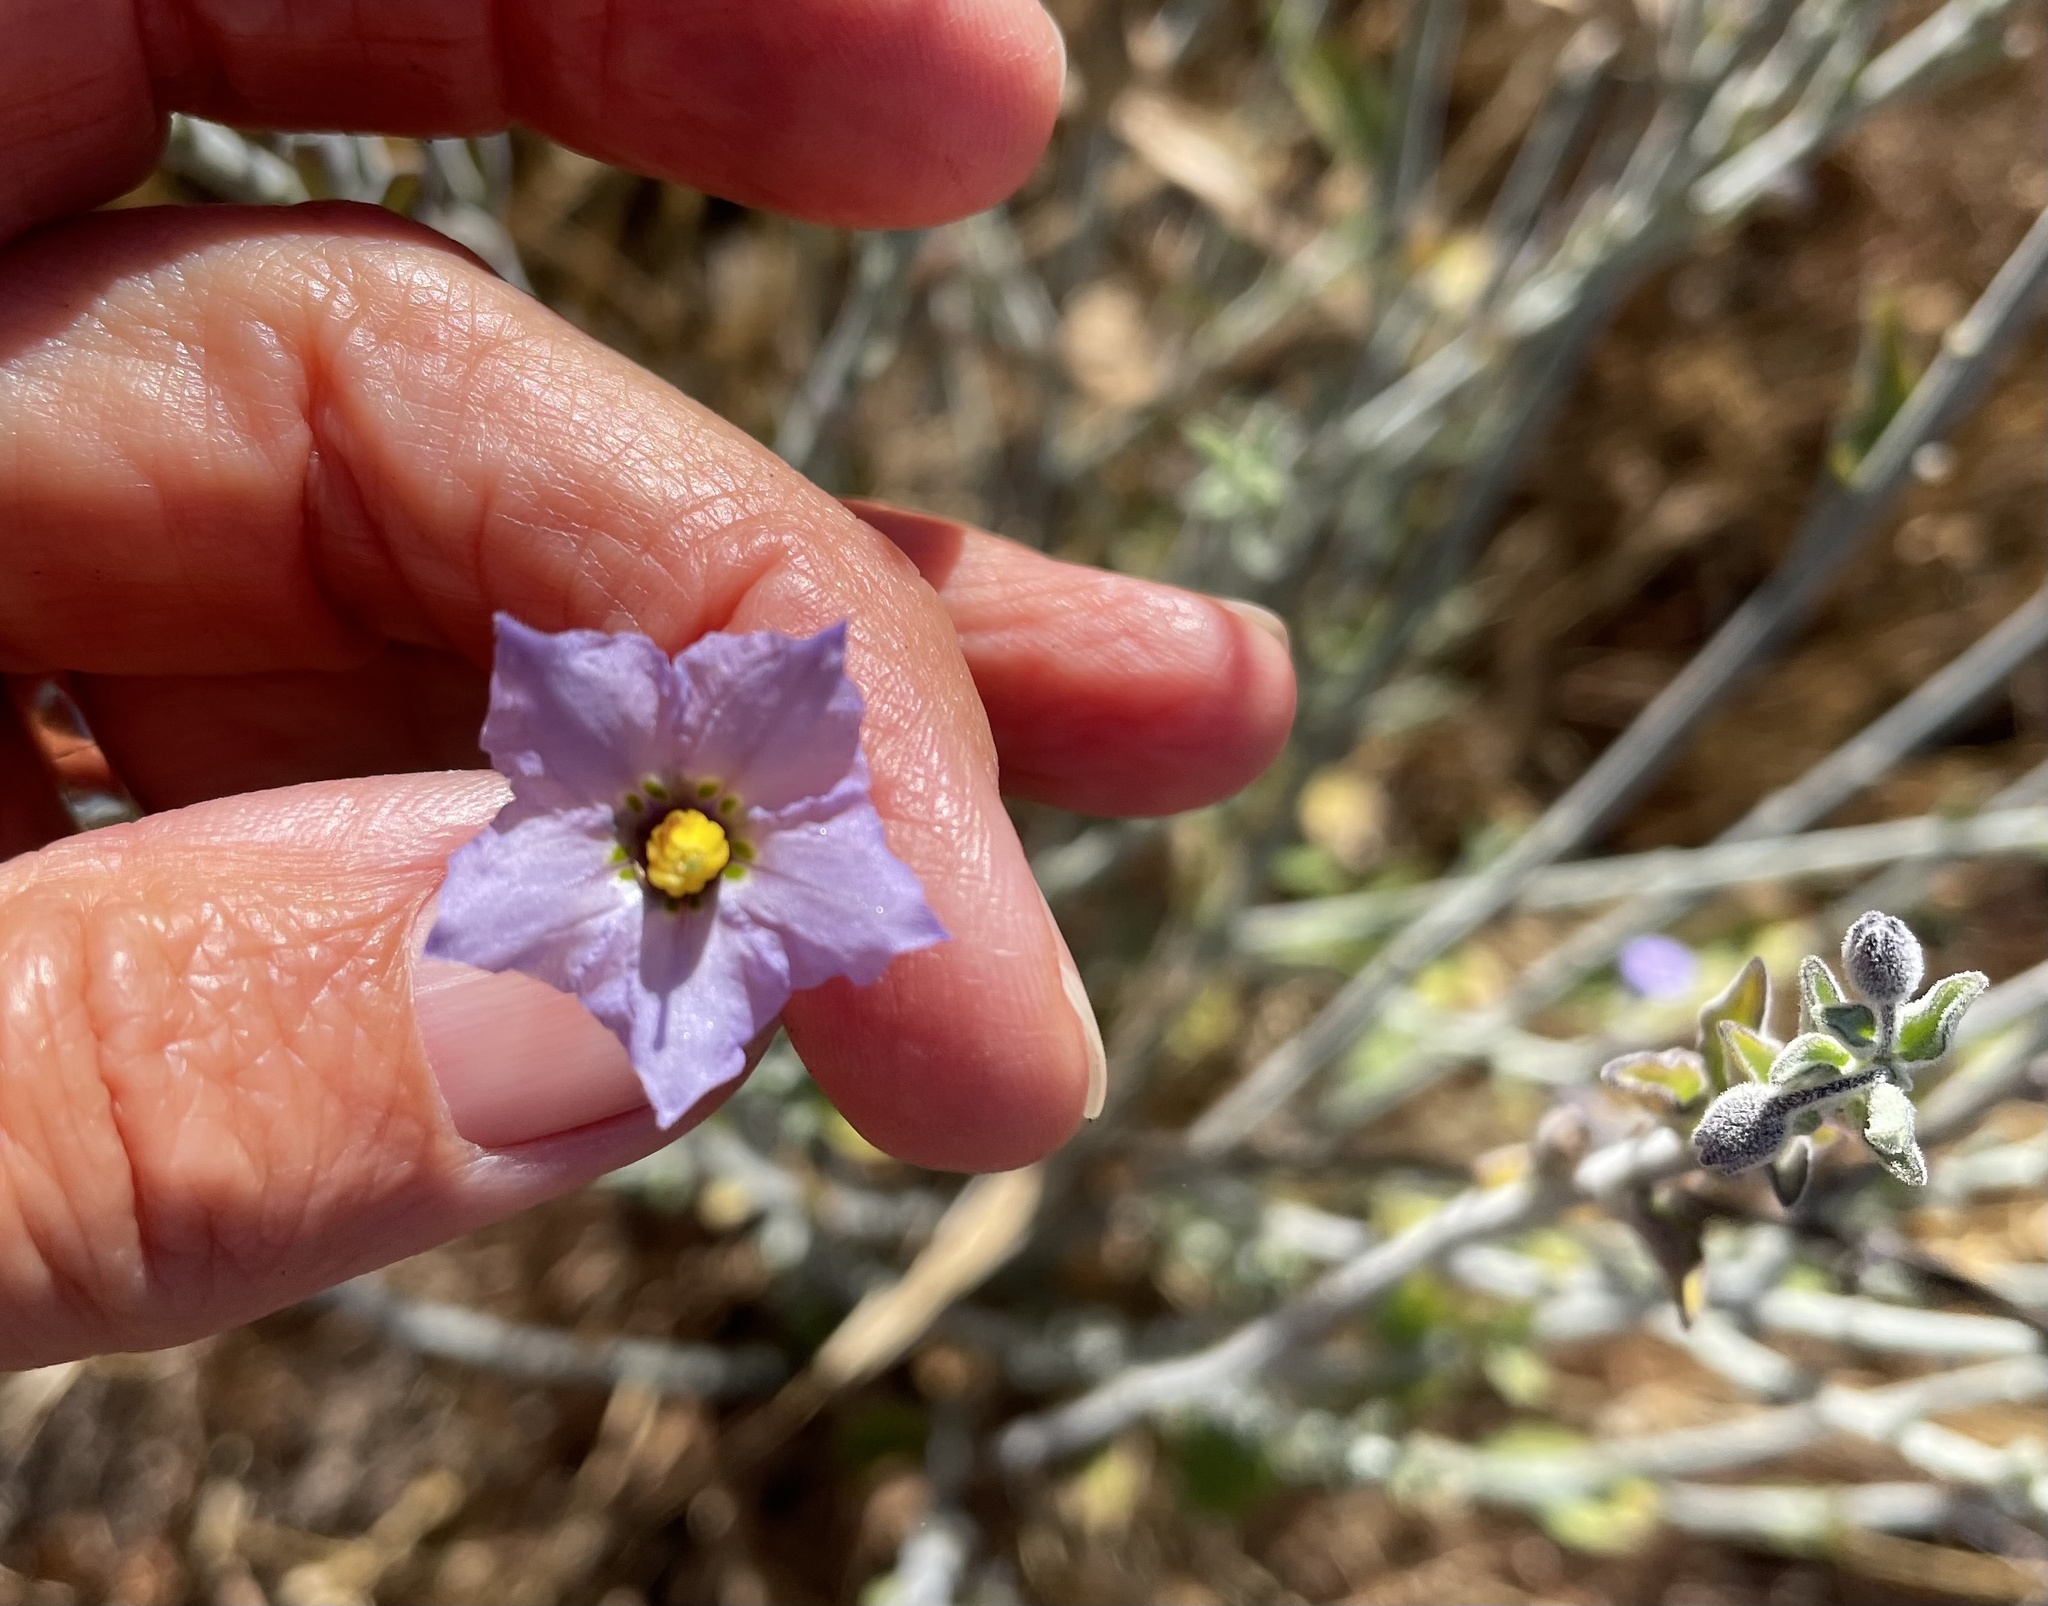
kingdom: Plantae
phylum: Tracheophyta
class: Magnoliopsida
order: Solanales
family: Solanaceae
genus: Solanum
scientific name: Solanum umbelliferum
